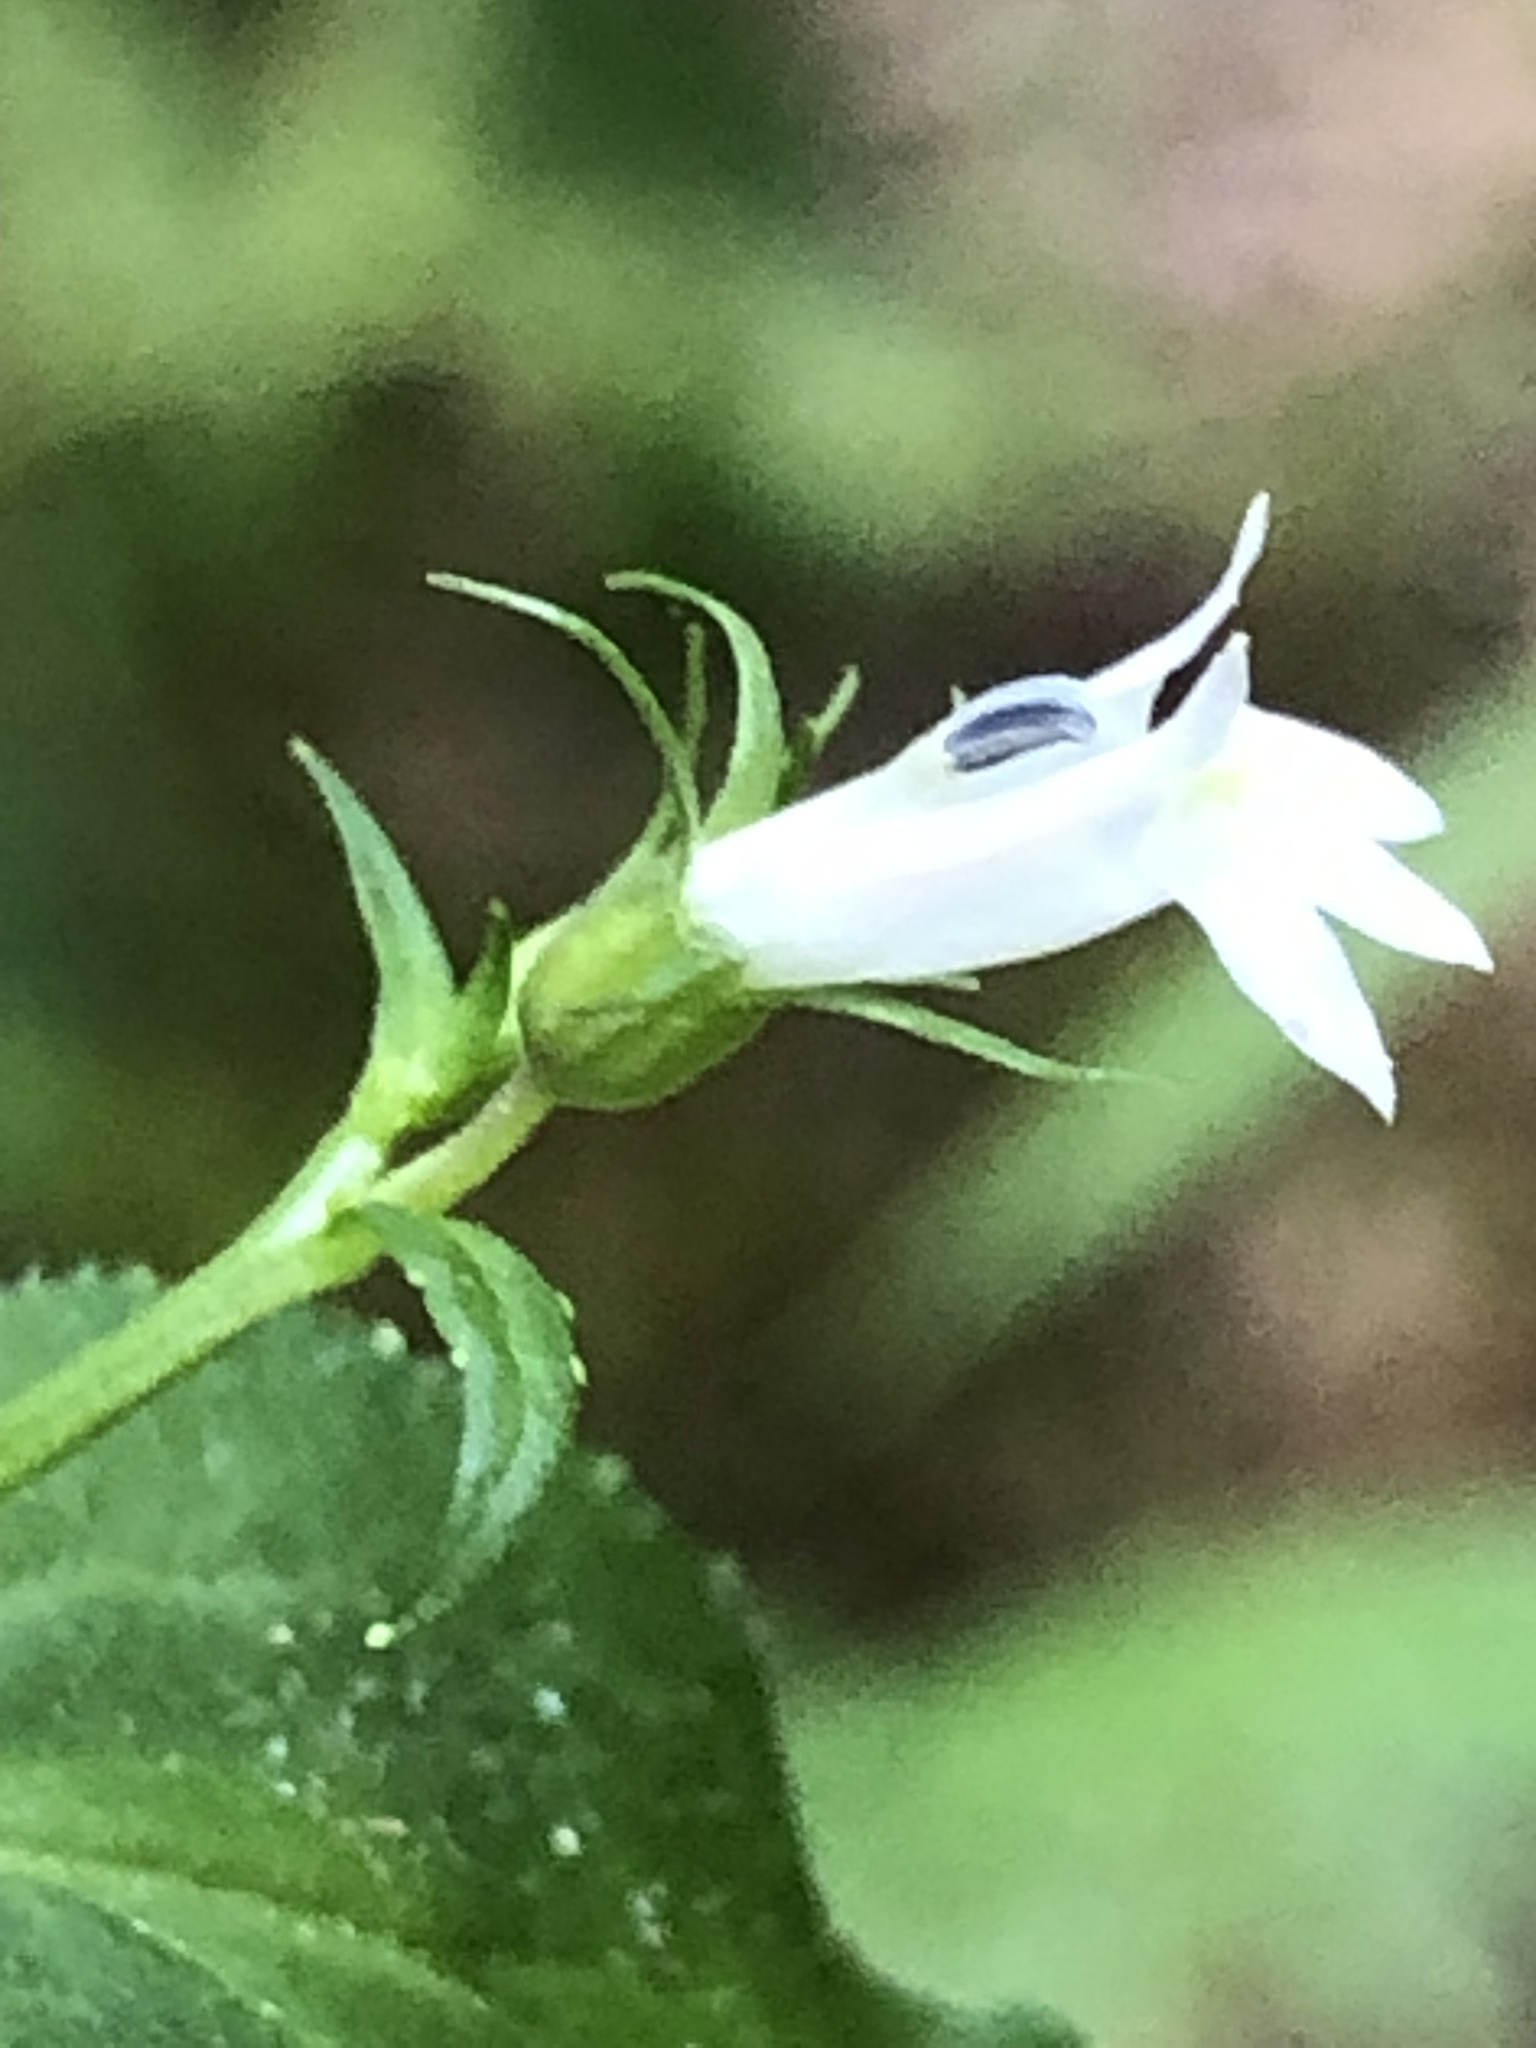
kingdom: Plantae
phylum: Tracheophyta
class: Magnoliopsida
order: Asterales
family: Campanulaceae
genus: Lobelia
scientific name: Lobelia inflata
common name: Indian tobacco
